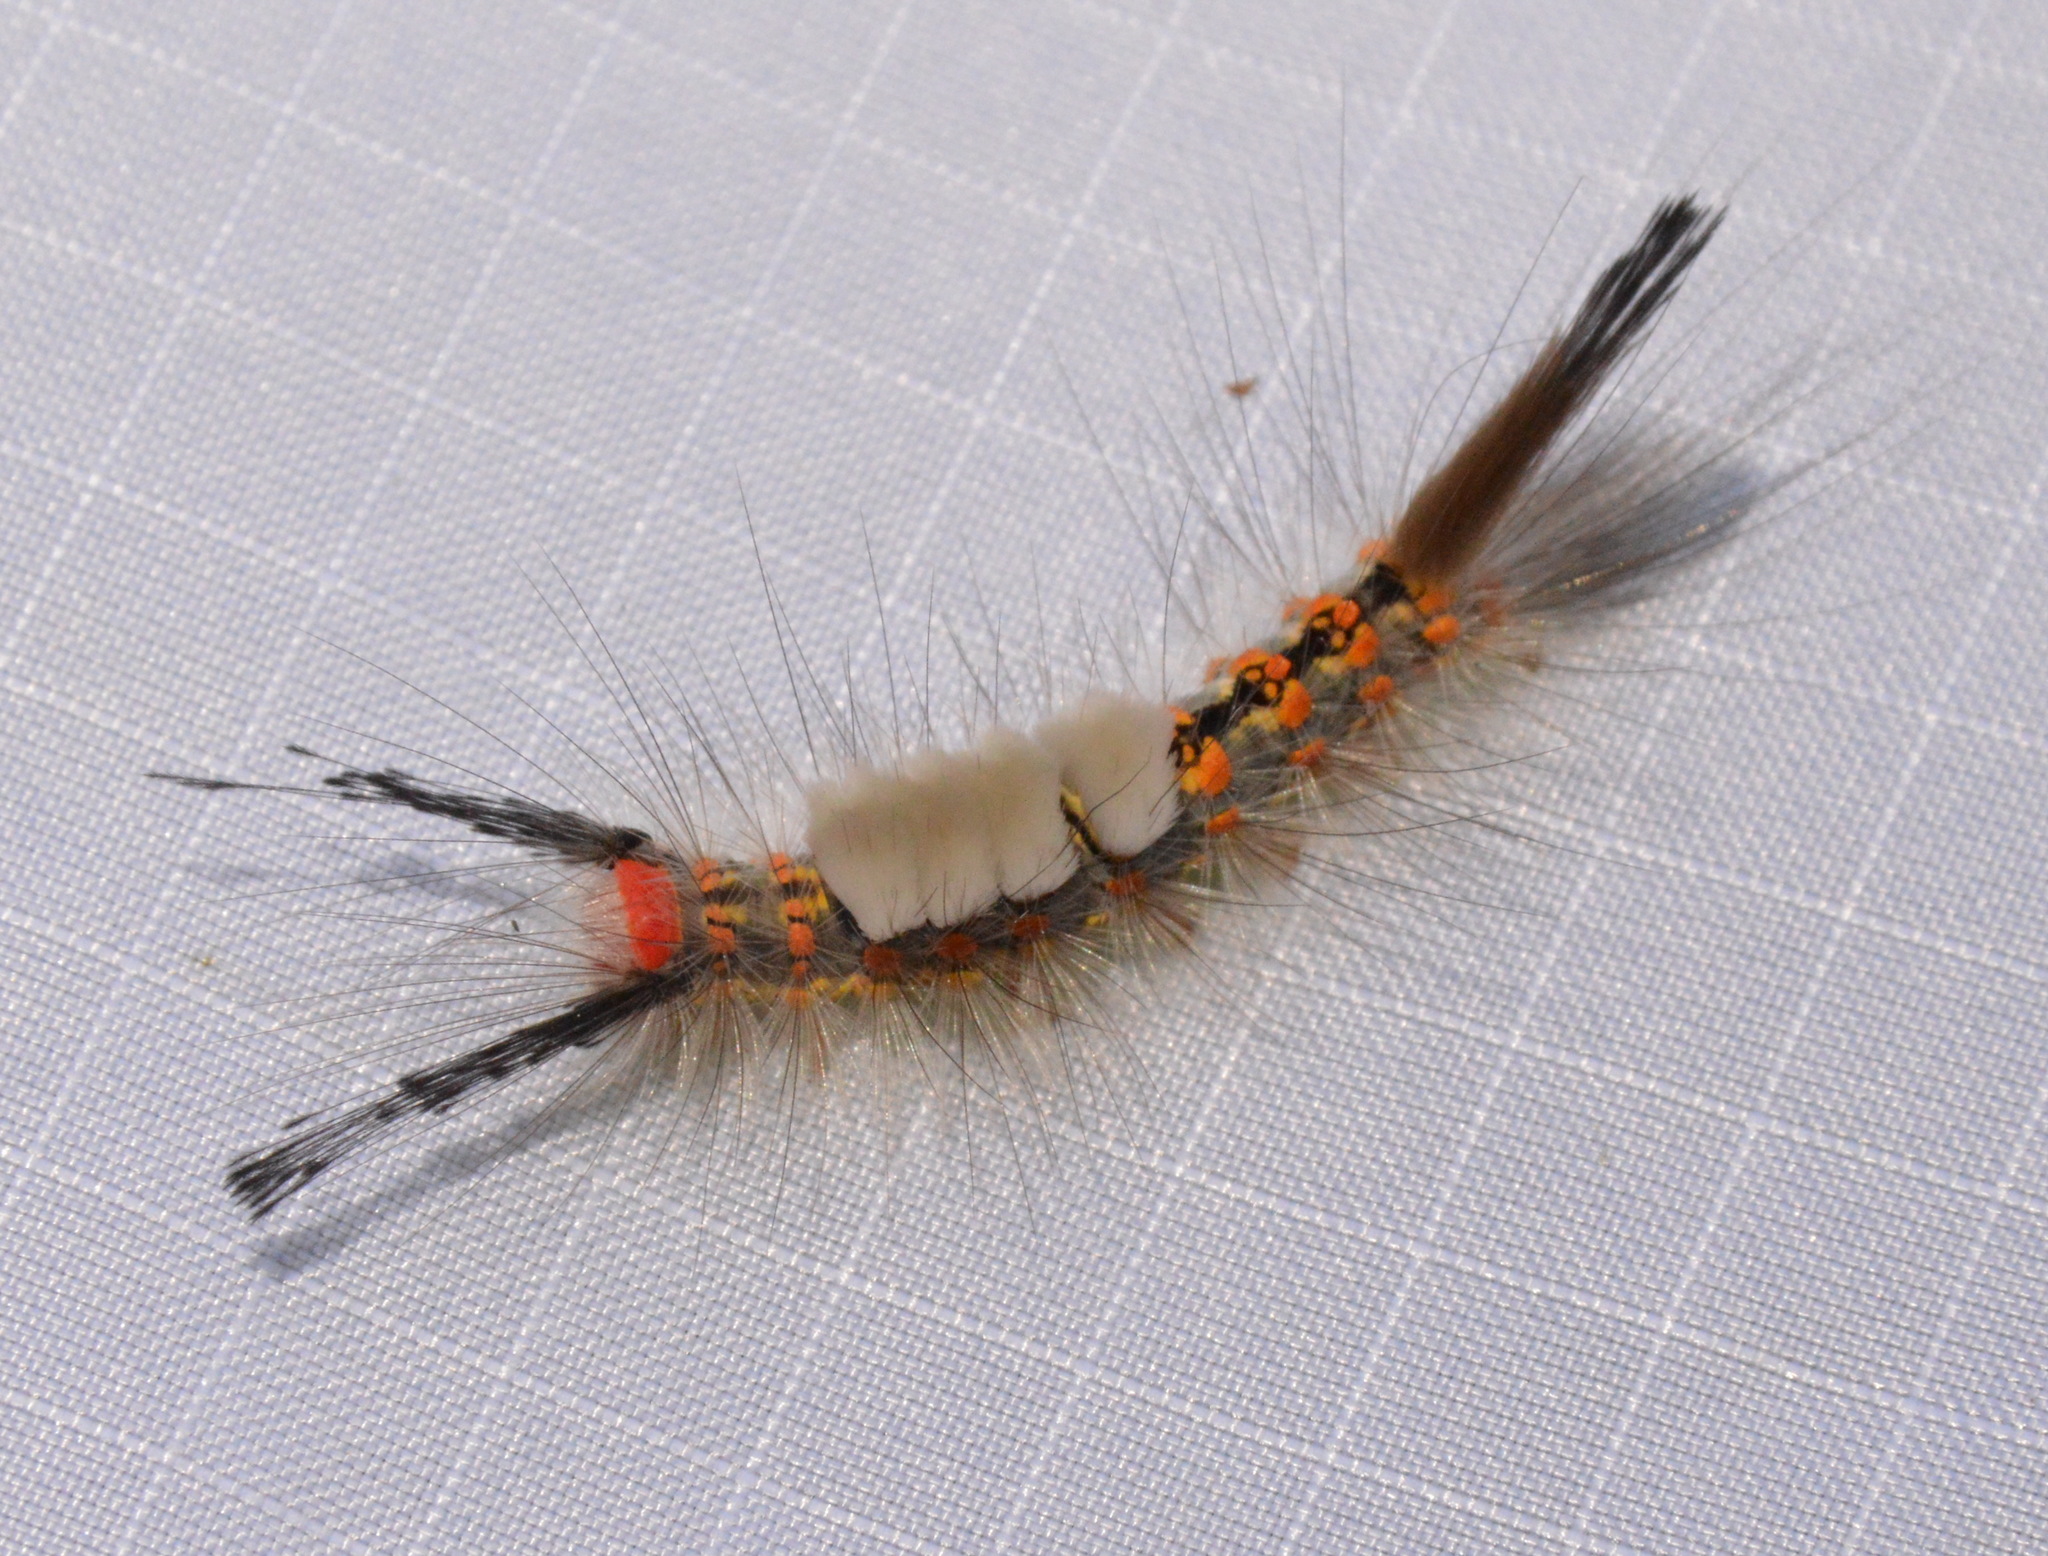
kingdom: Animalia
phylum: Arthropoda
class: Insecta
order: Lepidoptera
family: Erebidae
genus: Orgyia
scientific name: Orgyia detrita
